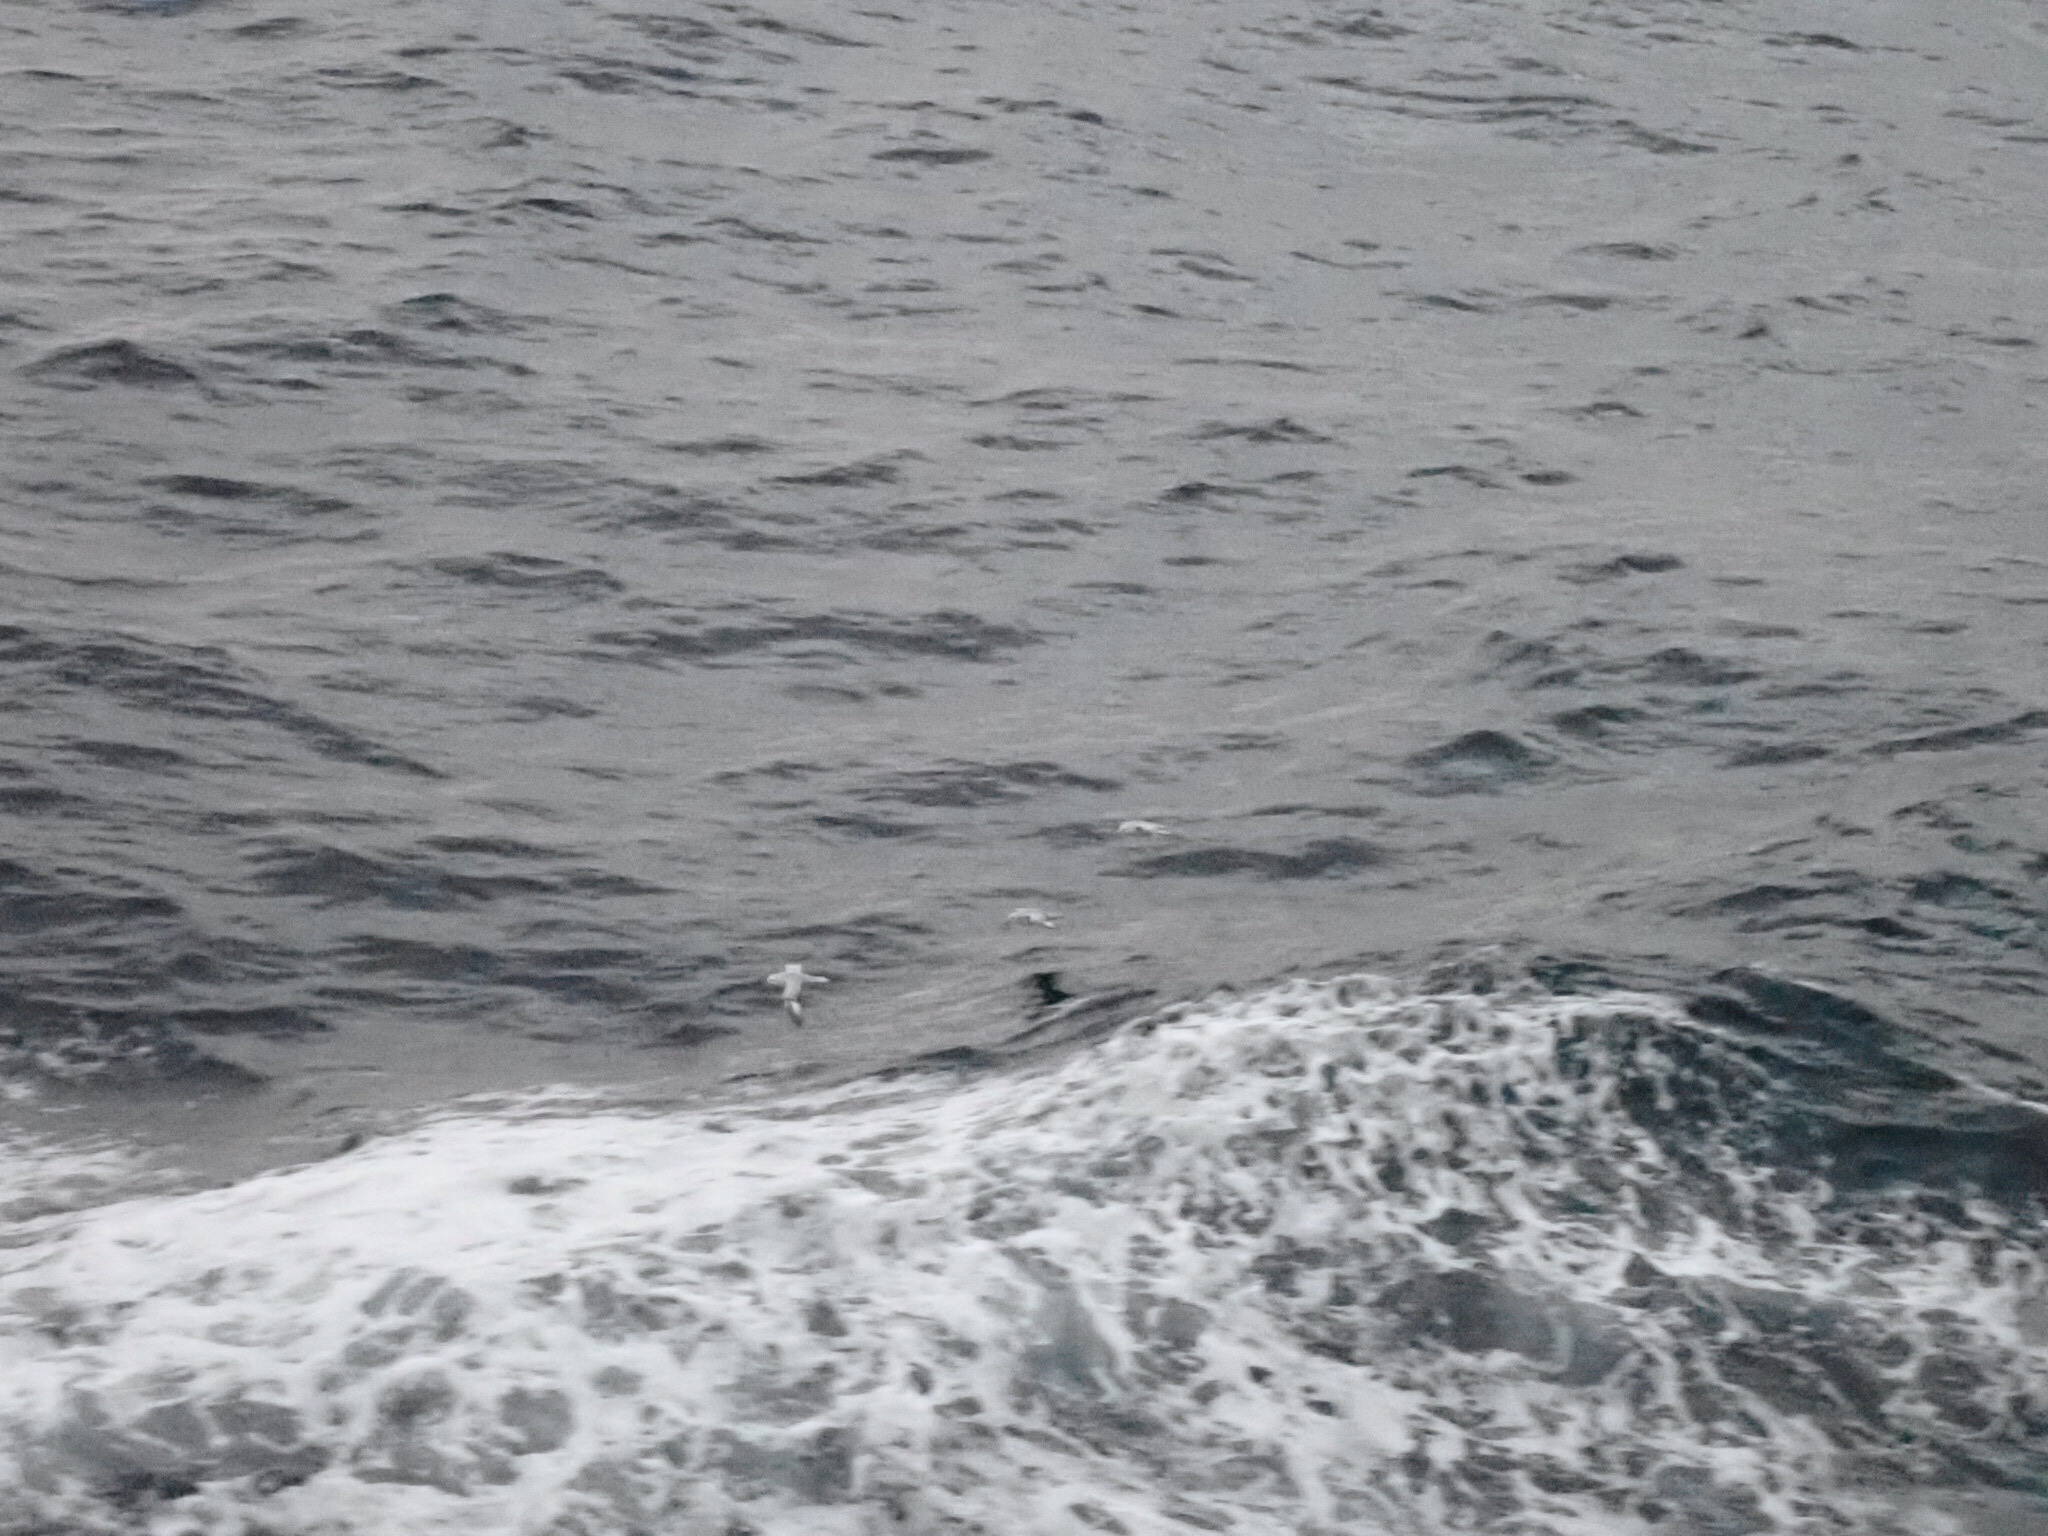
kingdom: Animalia
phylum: Chordata
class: Aves
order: Procellariiformes
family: Procellariidae
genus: Fulmarus
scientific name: Fulmarus glacialoides
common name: Southern fulmar
